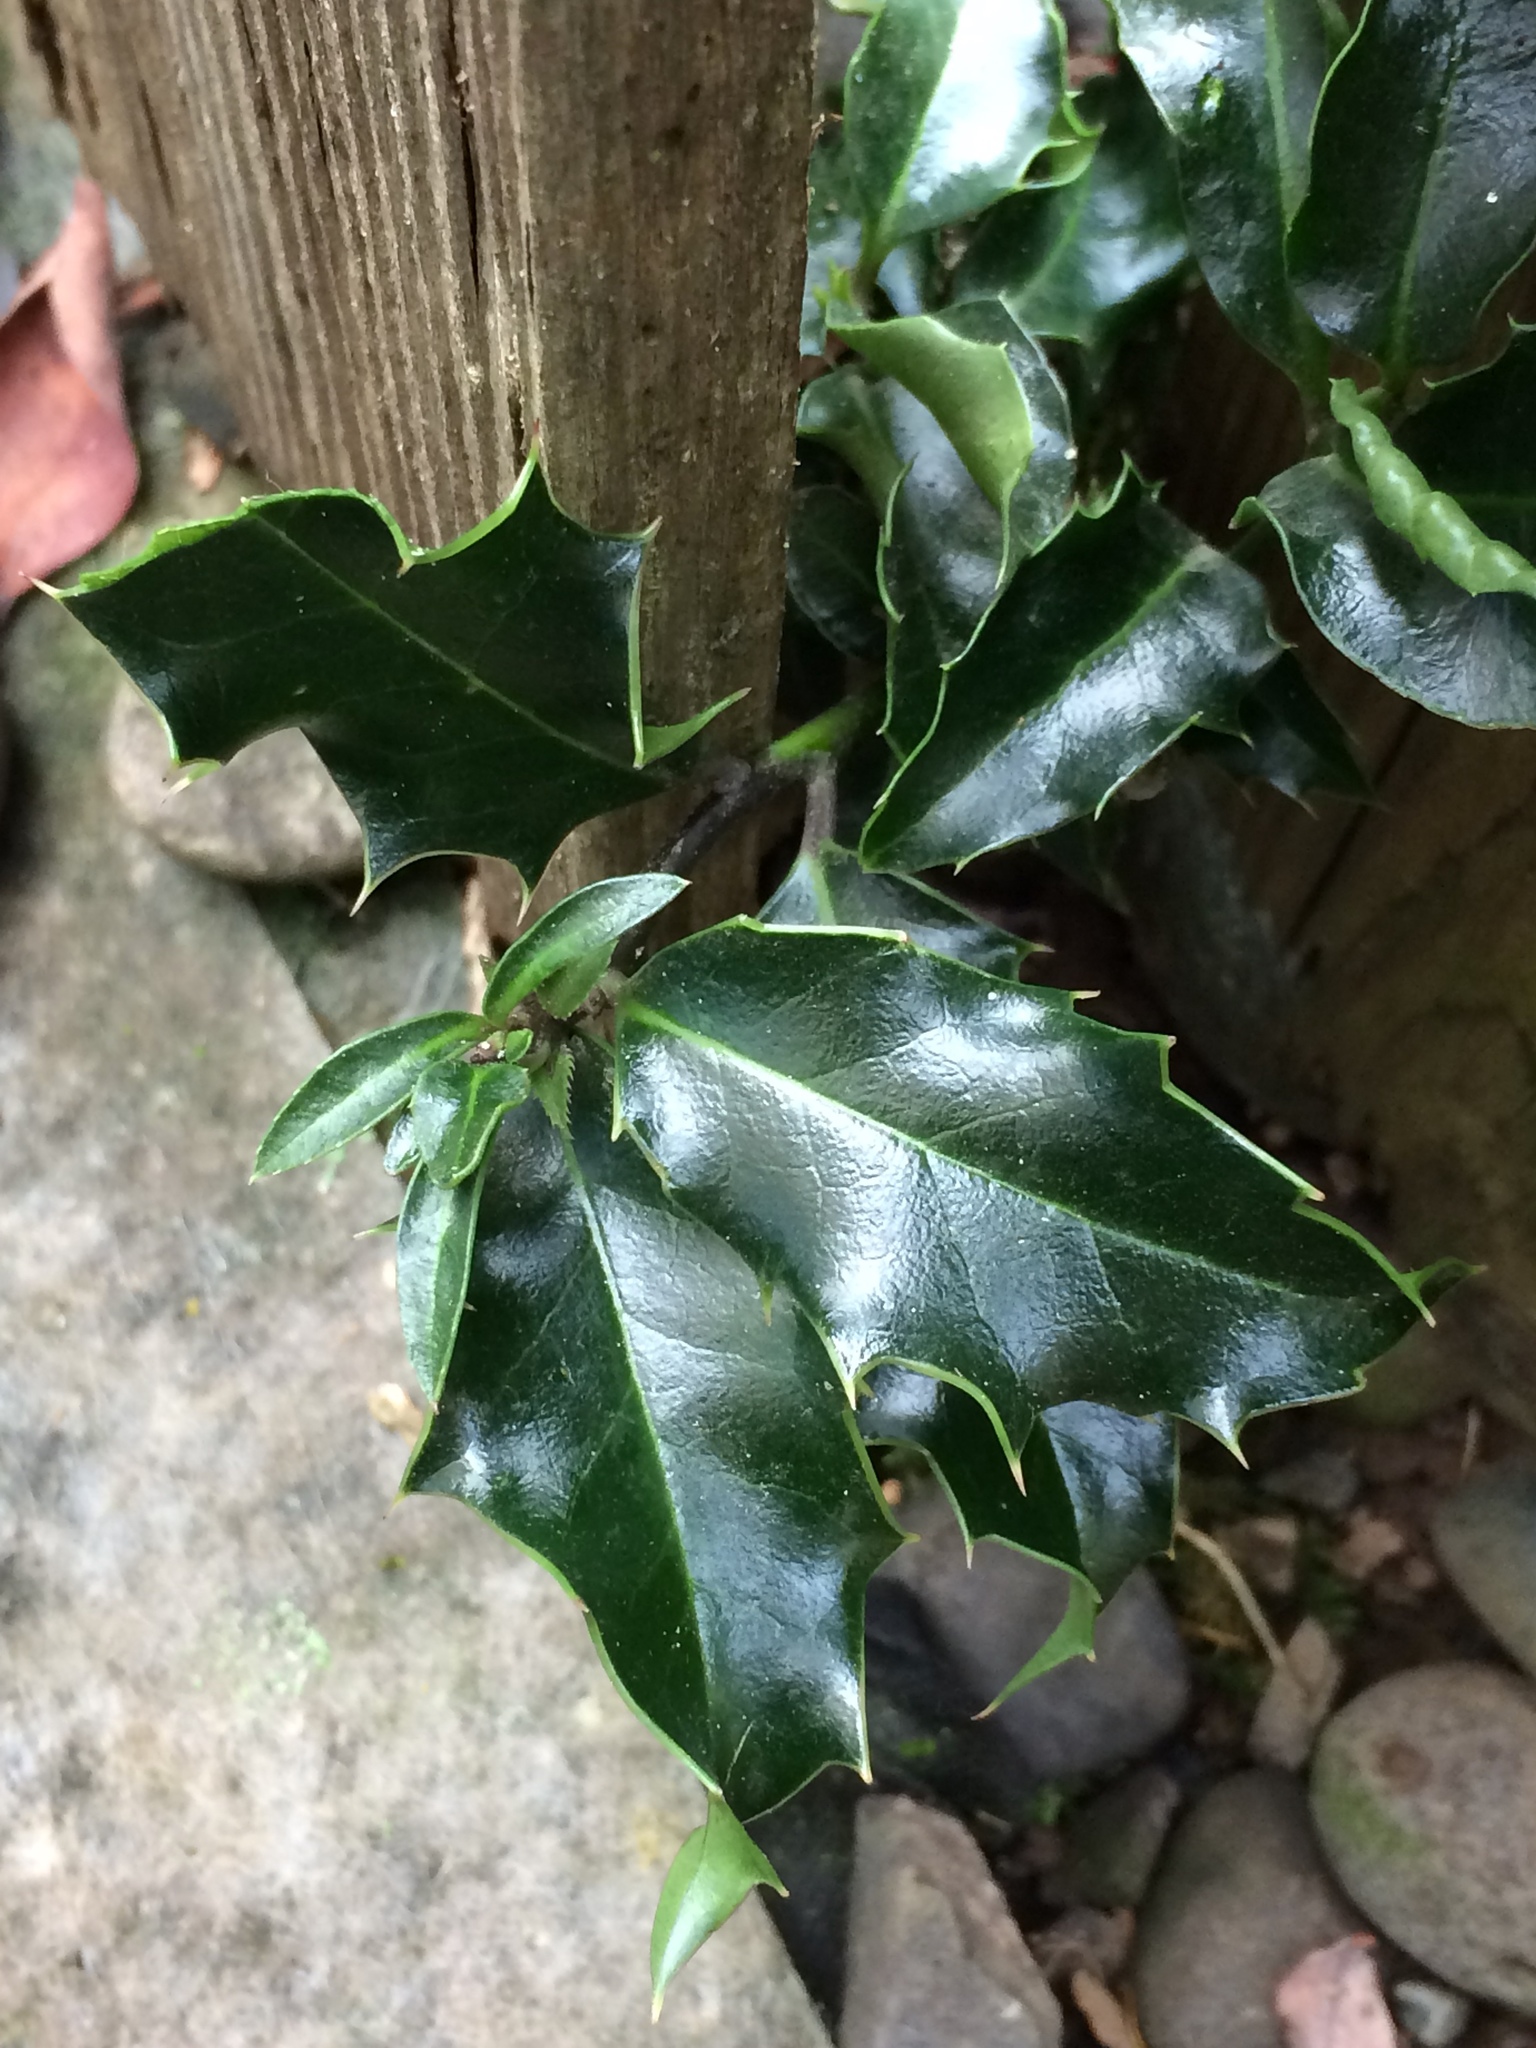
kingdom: Plantae
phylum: Tracheophyta
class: Magnoliopsida
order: Aquifoliales
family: Aquifoliaceae
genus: Ilex
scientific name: Ilex aquifolium
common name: English holly
